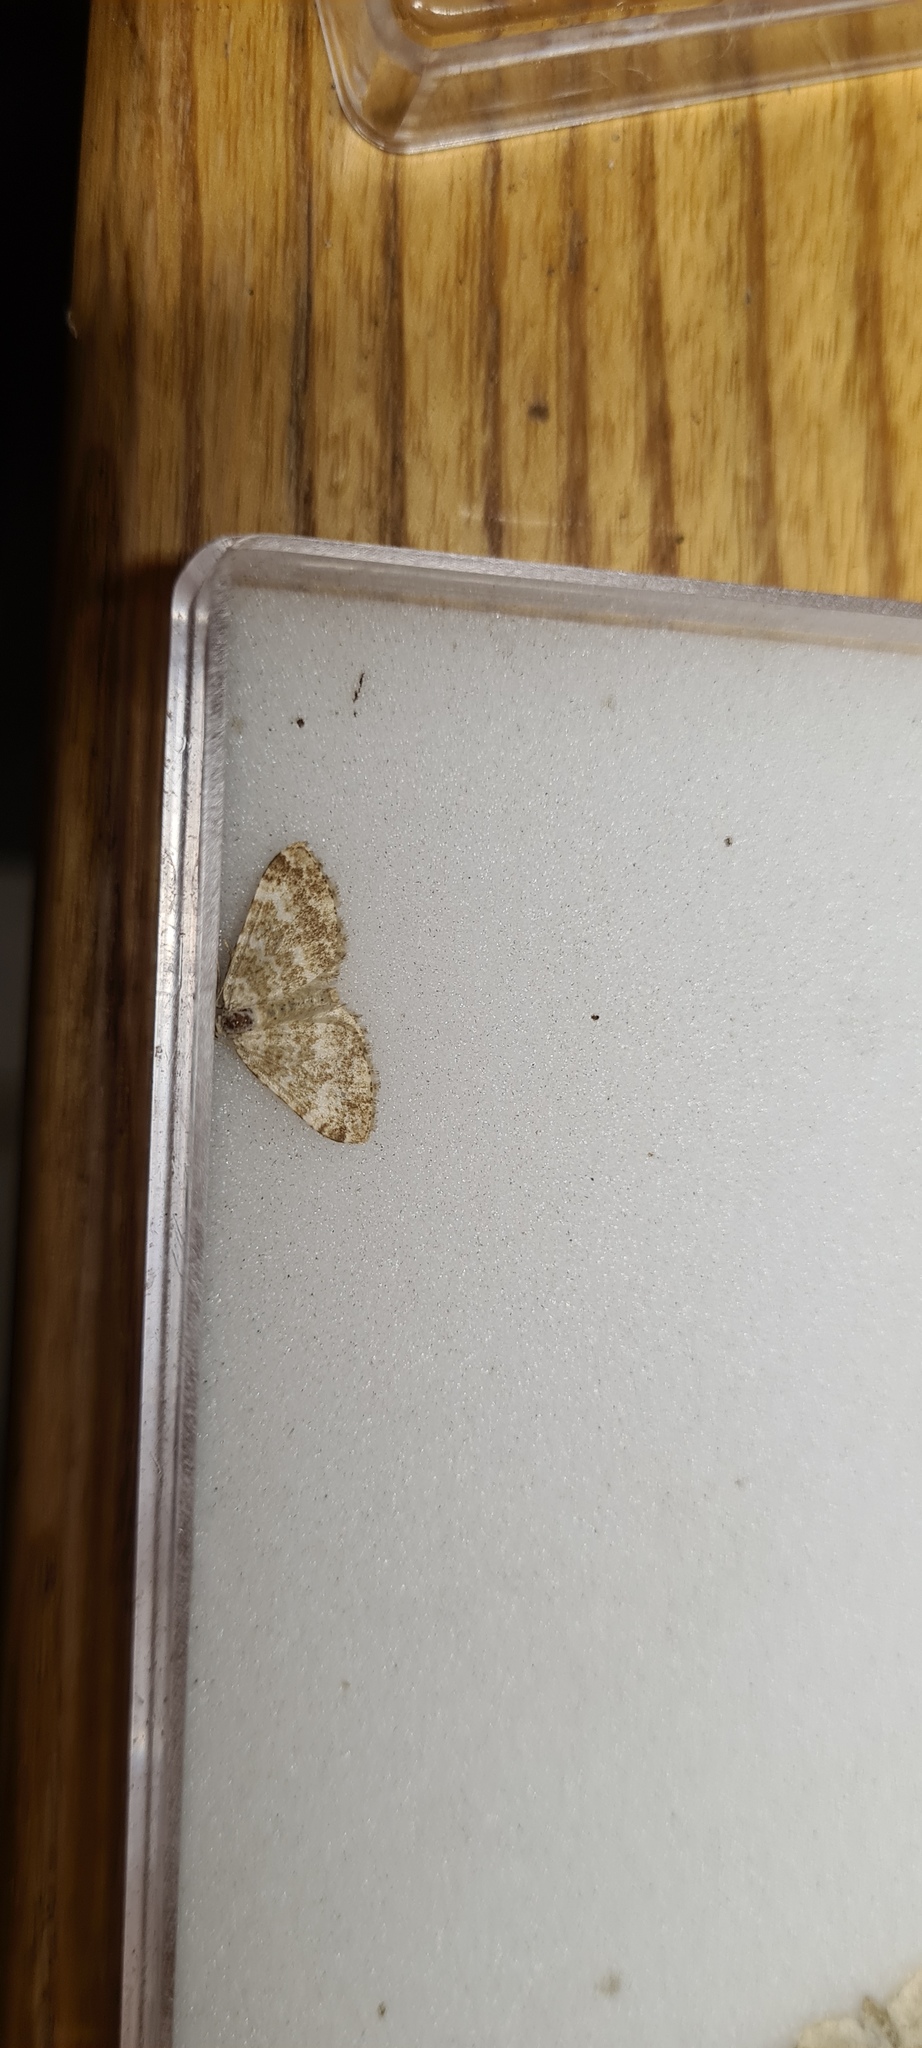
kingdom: Animalia
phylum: Arthropoda
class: Insecta
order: Lepidoptera
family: Geometridae
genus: Perizoma
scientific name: Perizoma flavofasciata
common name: Sandy carpet
